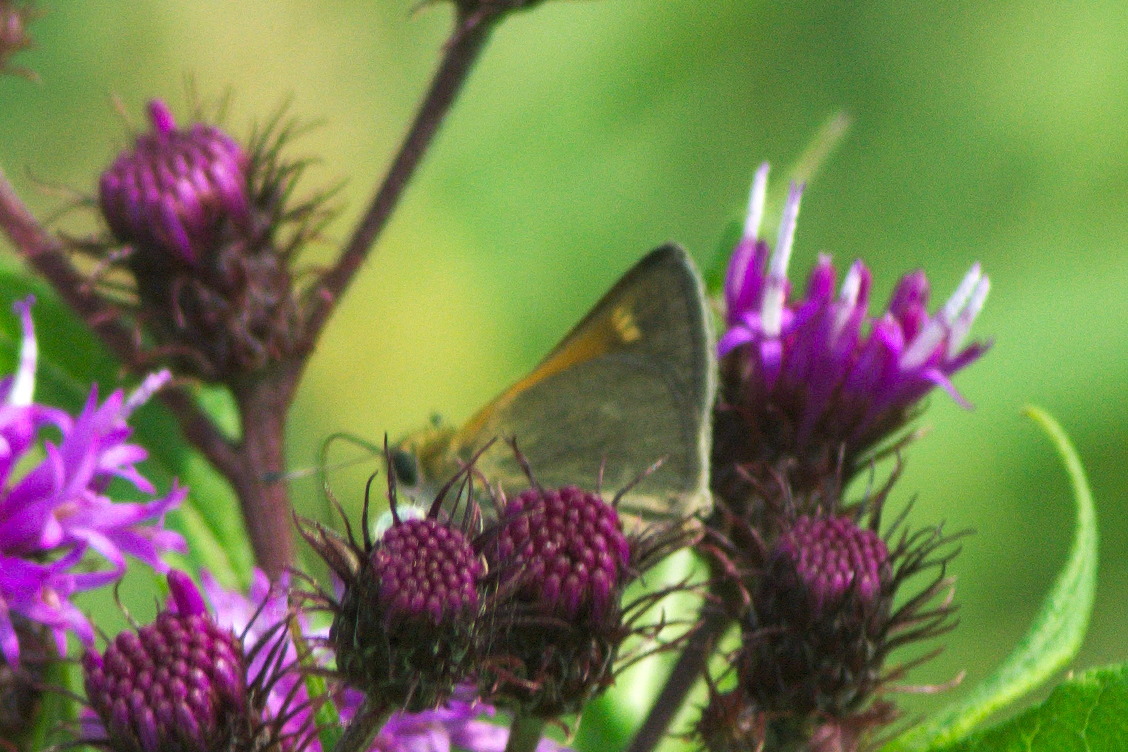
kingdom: Animalia
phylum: Arthropoda
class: Insecta
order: Lepidoptera
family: Hesperiidae
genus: Polites
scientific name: Polites themistocles
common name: Tawny-edged skipper
